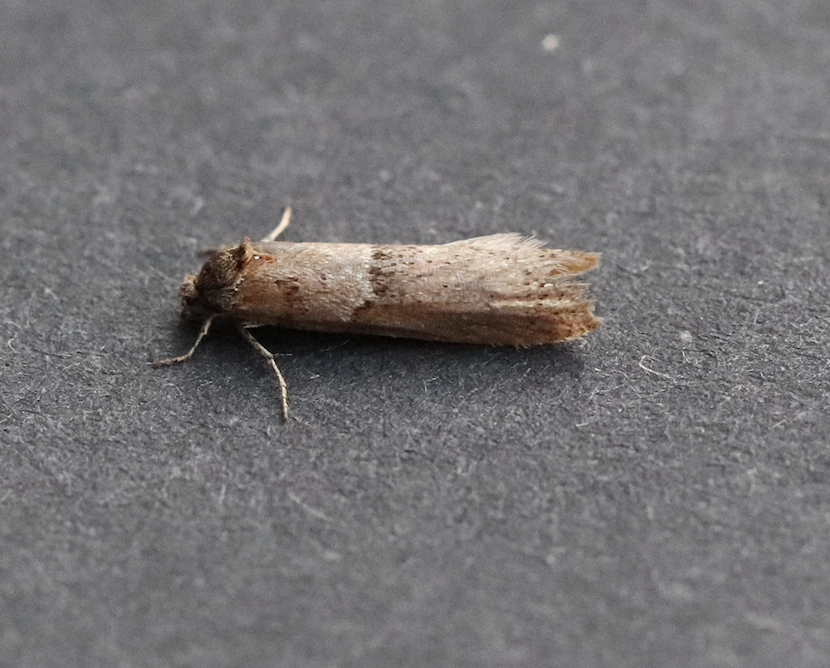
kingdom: Animalia
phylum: Arthropoda
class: Insecta
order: Lepidoptera
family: Tortricidae
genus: Tortricodes
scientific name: Tortricodes alternella
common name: Winter shade
